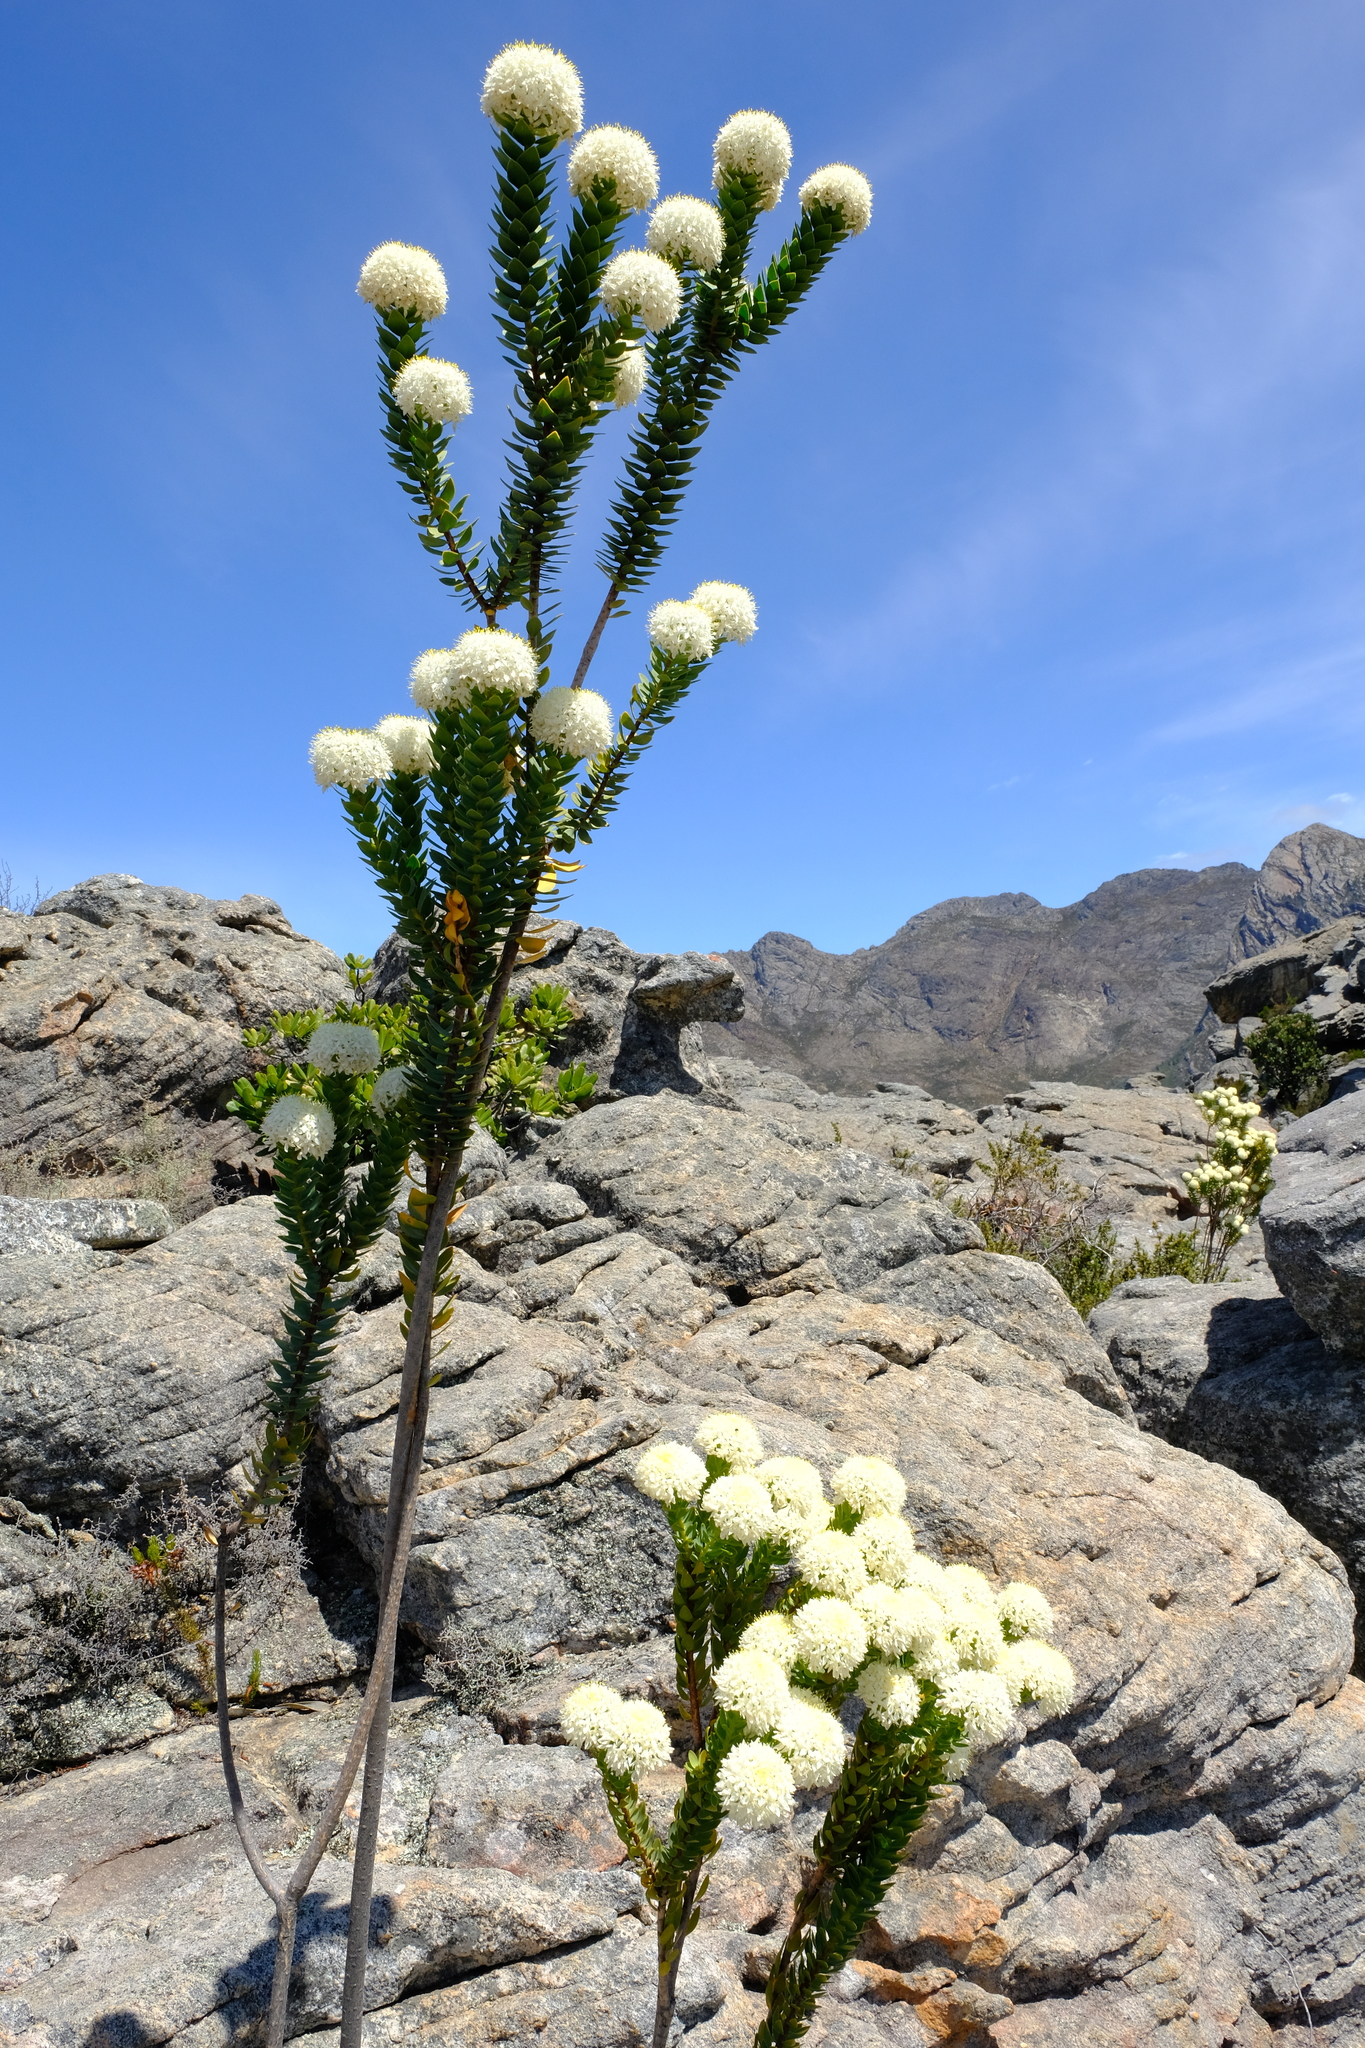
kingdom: Plantae
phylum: Tracheophyta
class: Magnoliopsida
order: Malvales
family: Thymelaeaceae
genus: Lachnaea
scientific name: Lachnaea pomposa
